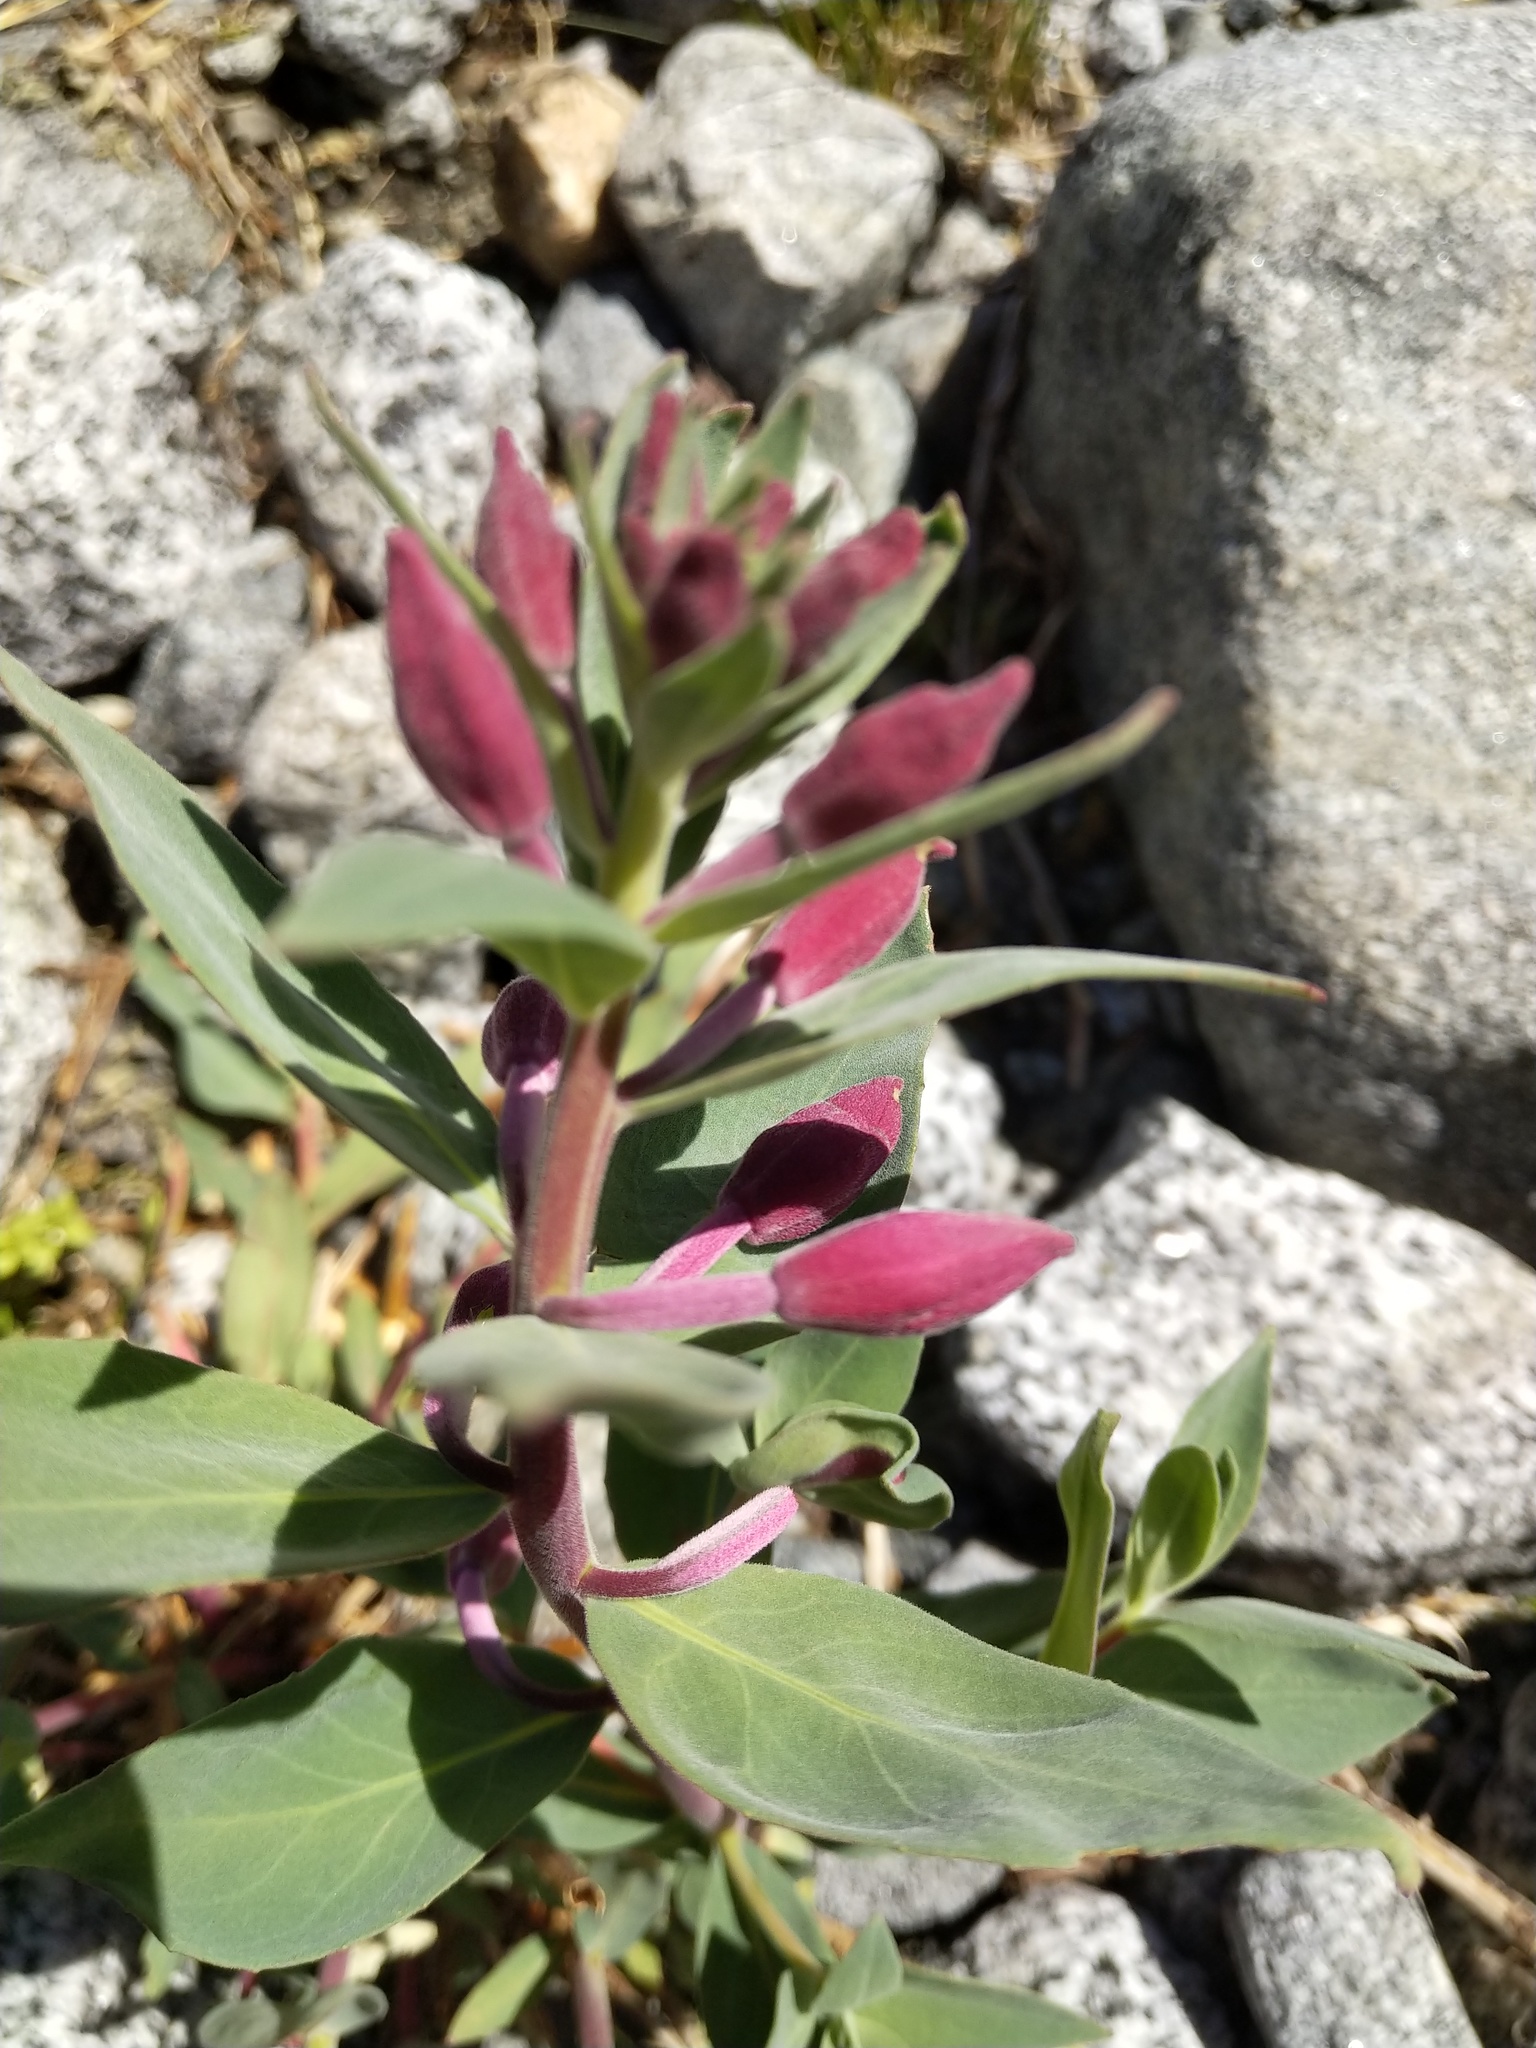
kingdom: Plantae
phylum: Tracheophyta
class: Magnoliopsida
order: Myrtales
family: Onagraceae
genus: Chamaenerion
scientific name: Chamaenerion latifolium
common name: Dwarf fireweed
